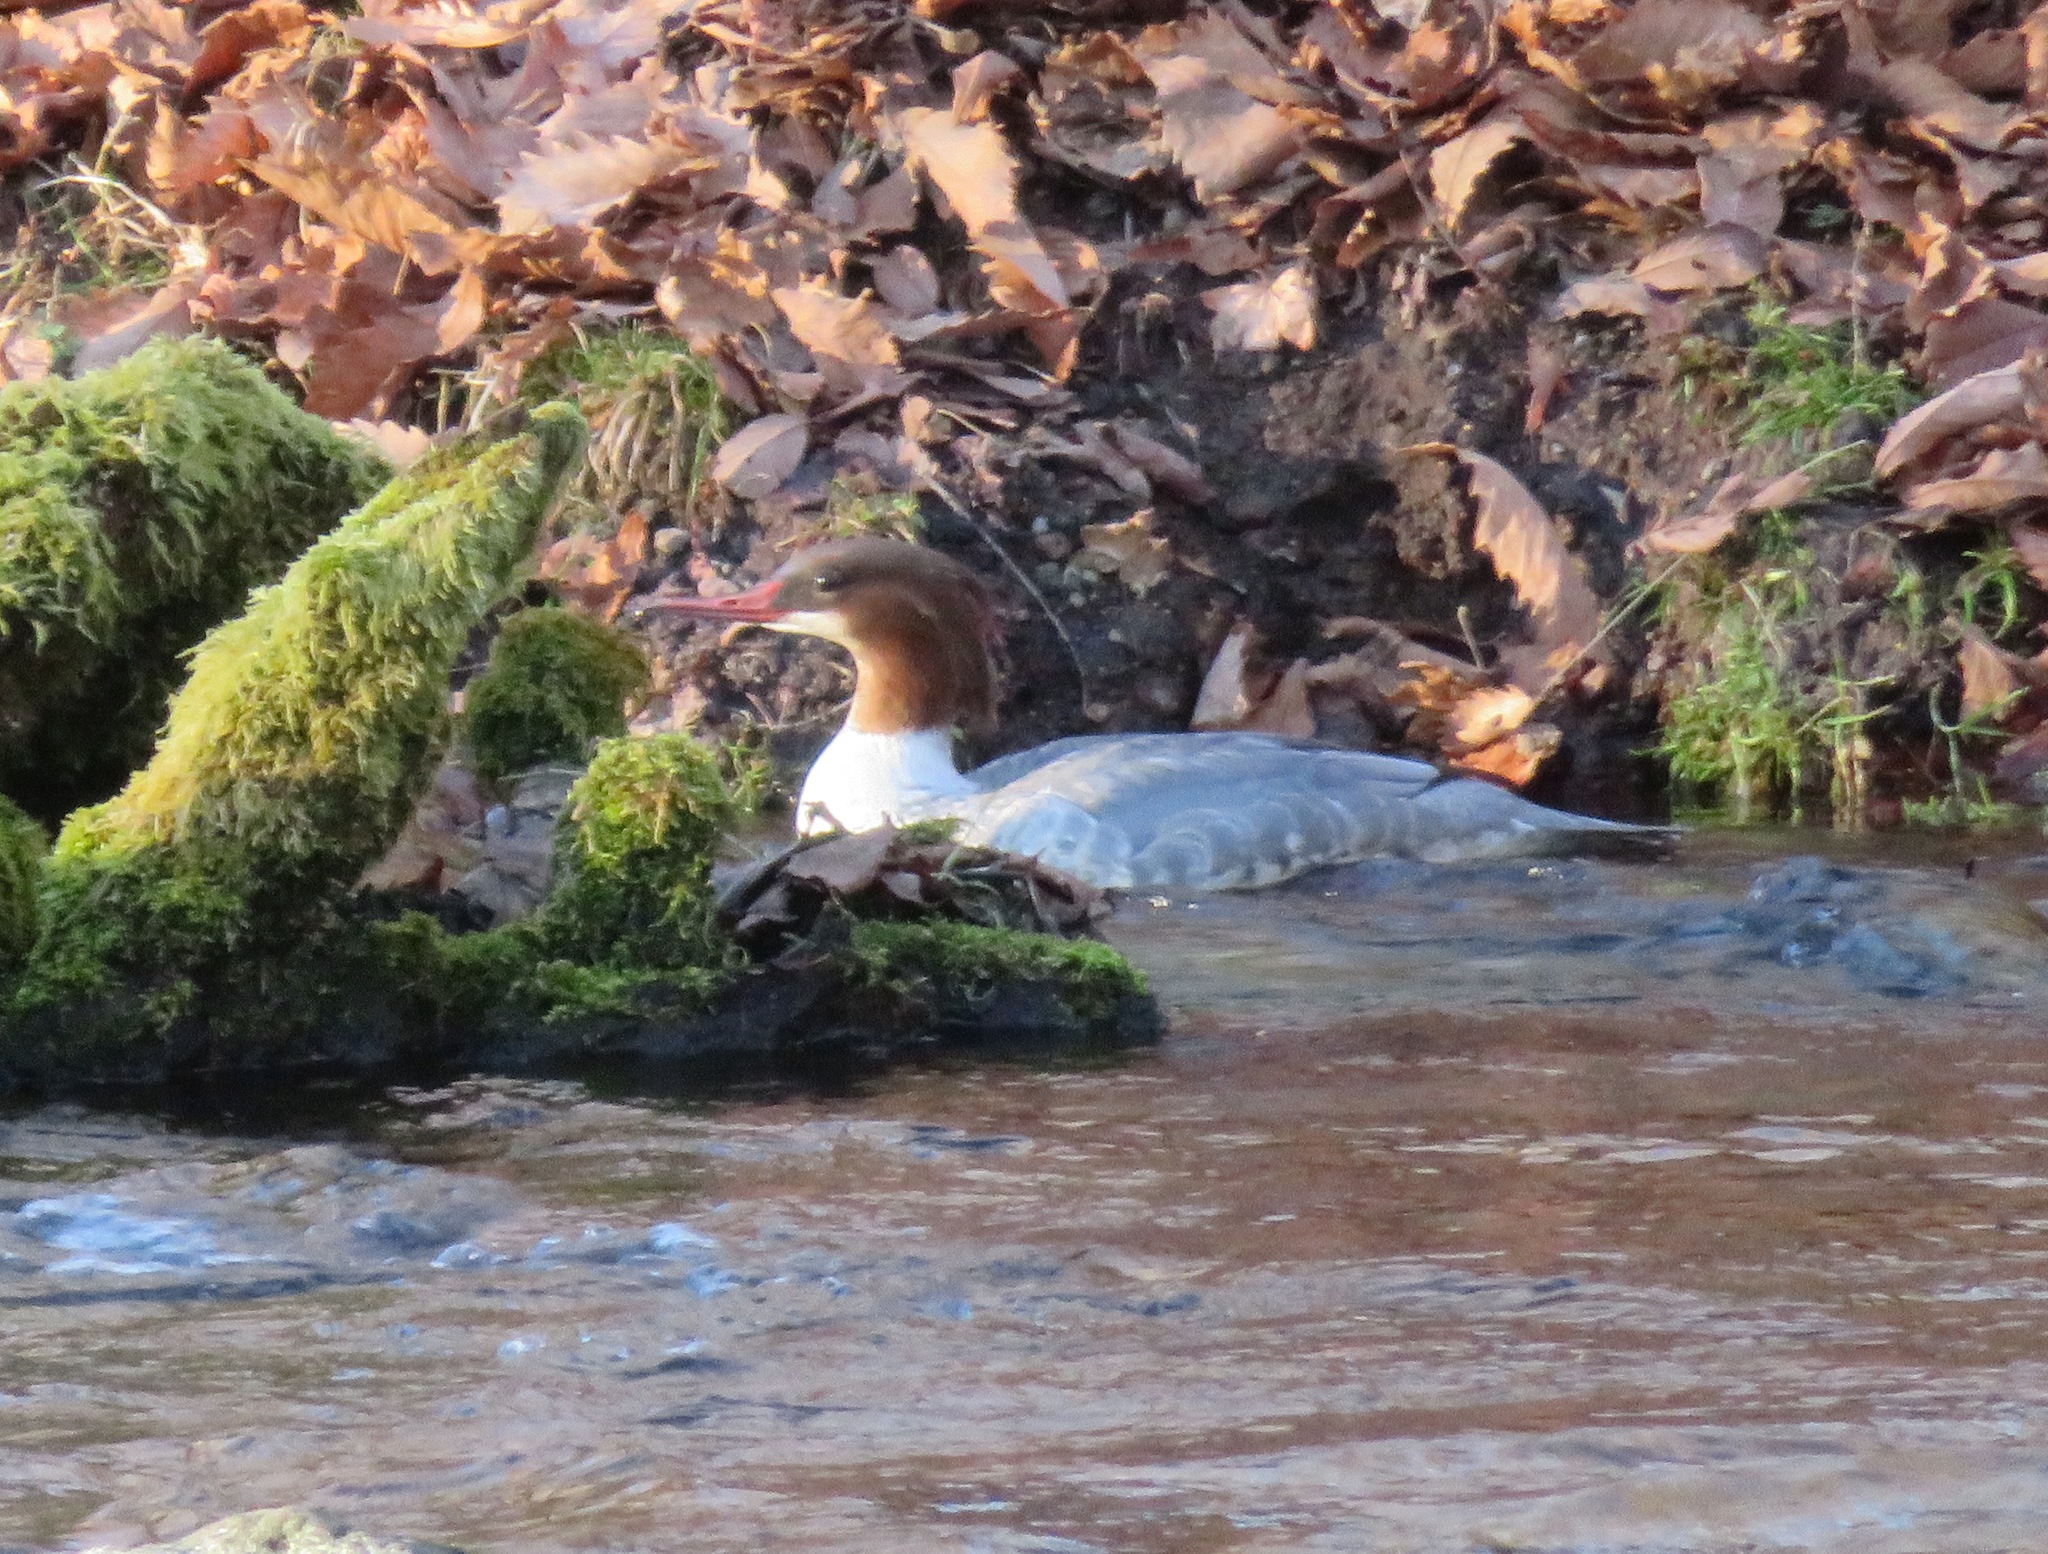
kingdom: Animalia
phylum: Chordata
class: Aves
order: Anseriformes
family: Anatidae
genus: Mergus
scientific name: Mergus merganser
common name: Common merganser
